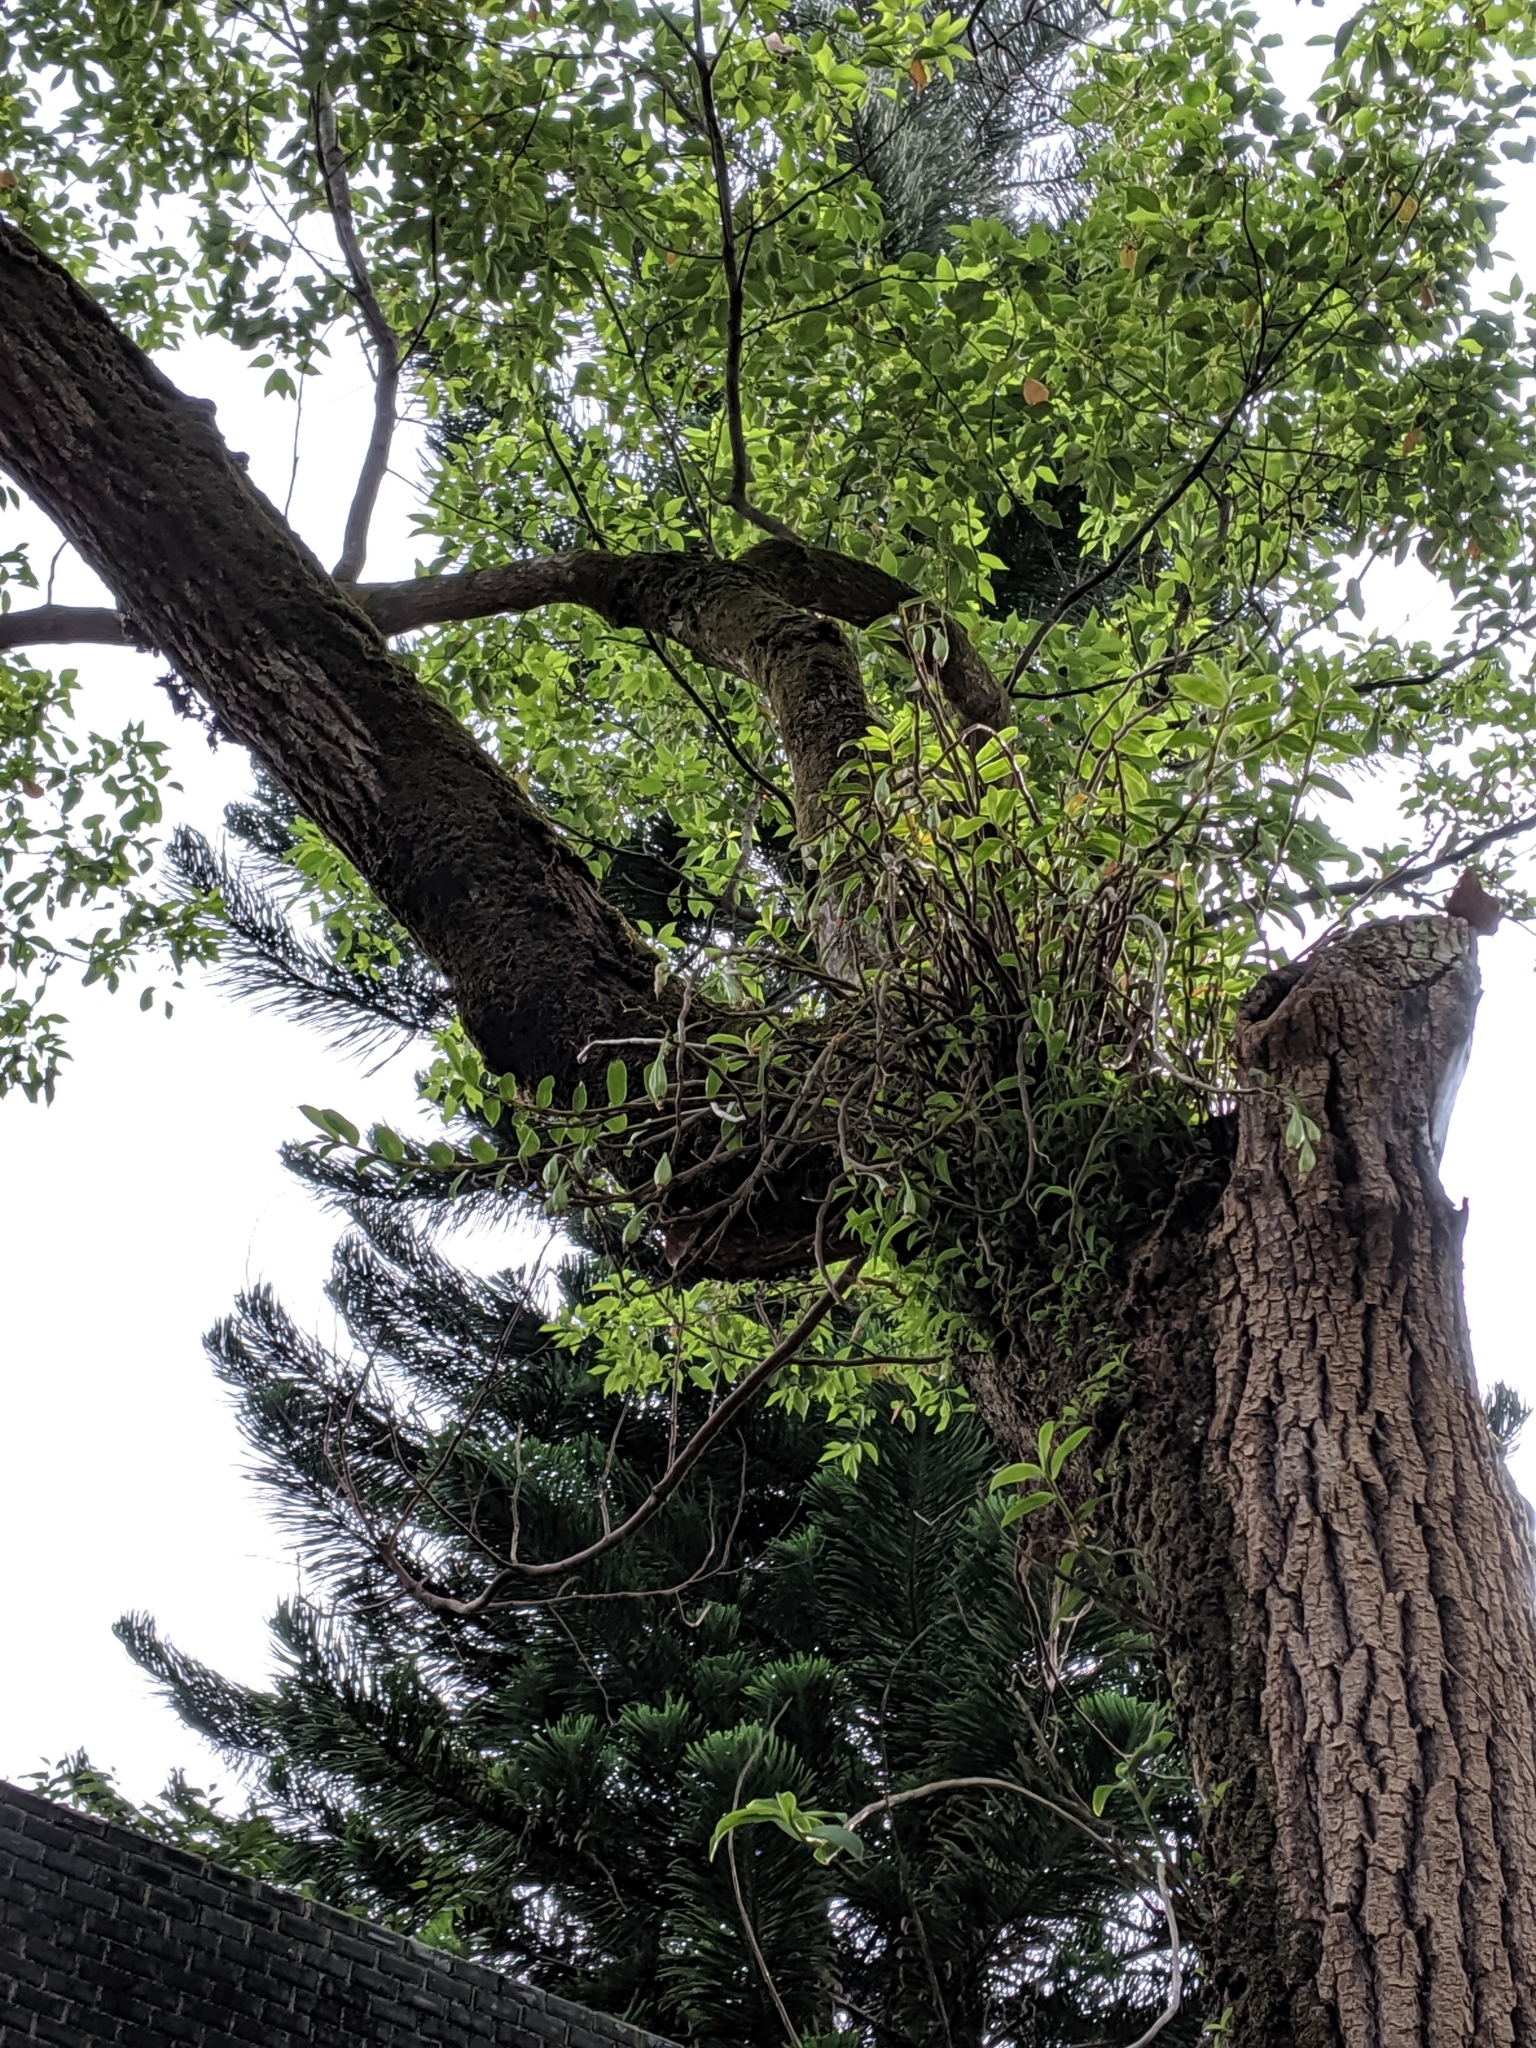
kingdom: Plantae
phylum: Tracheophyta
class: Liliopsida
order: Asparagales
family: Orchidaceae
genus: Dendrobium
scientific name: Dendrobium officinale
